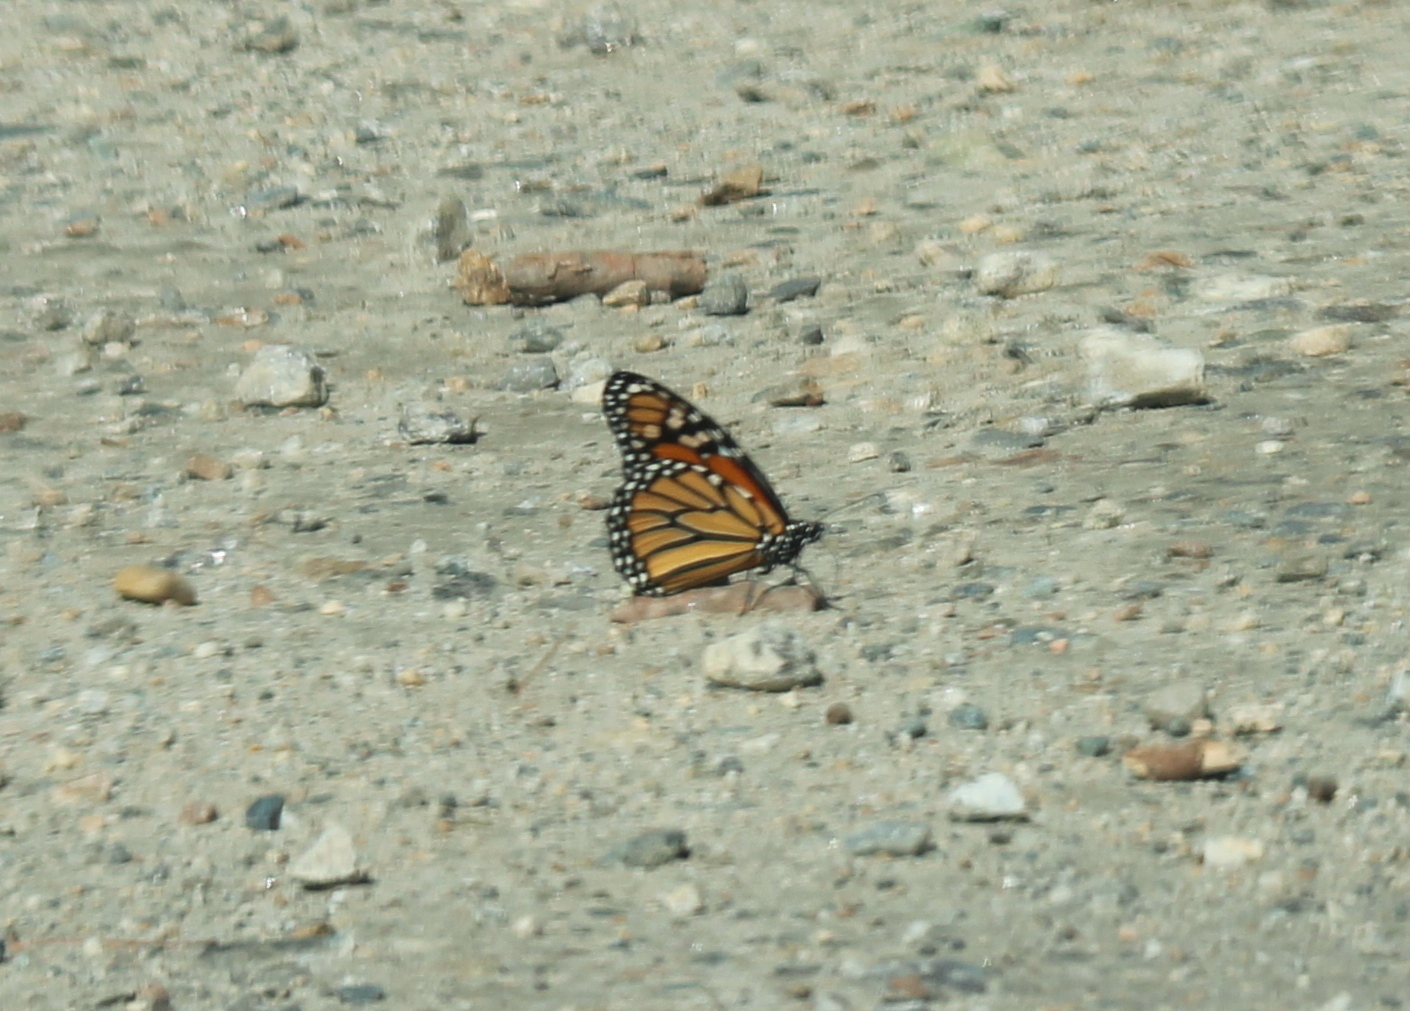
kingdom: Animalia
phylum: Arthropoda
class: Insecta
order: Lepidoptera
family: Nymphalidae
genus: Danaus
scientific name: Danaus plexippus
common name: Monarch
